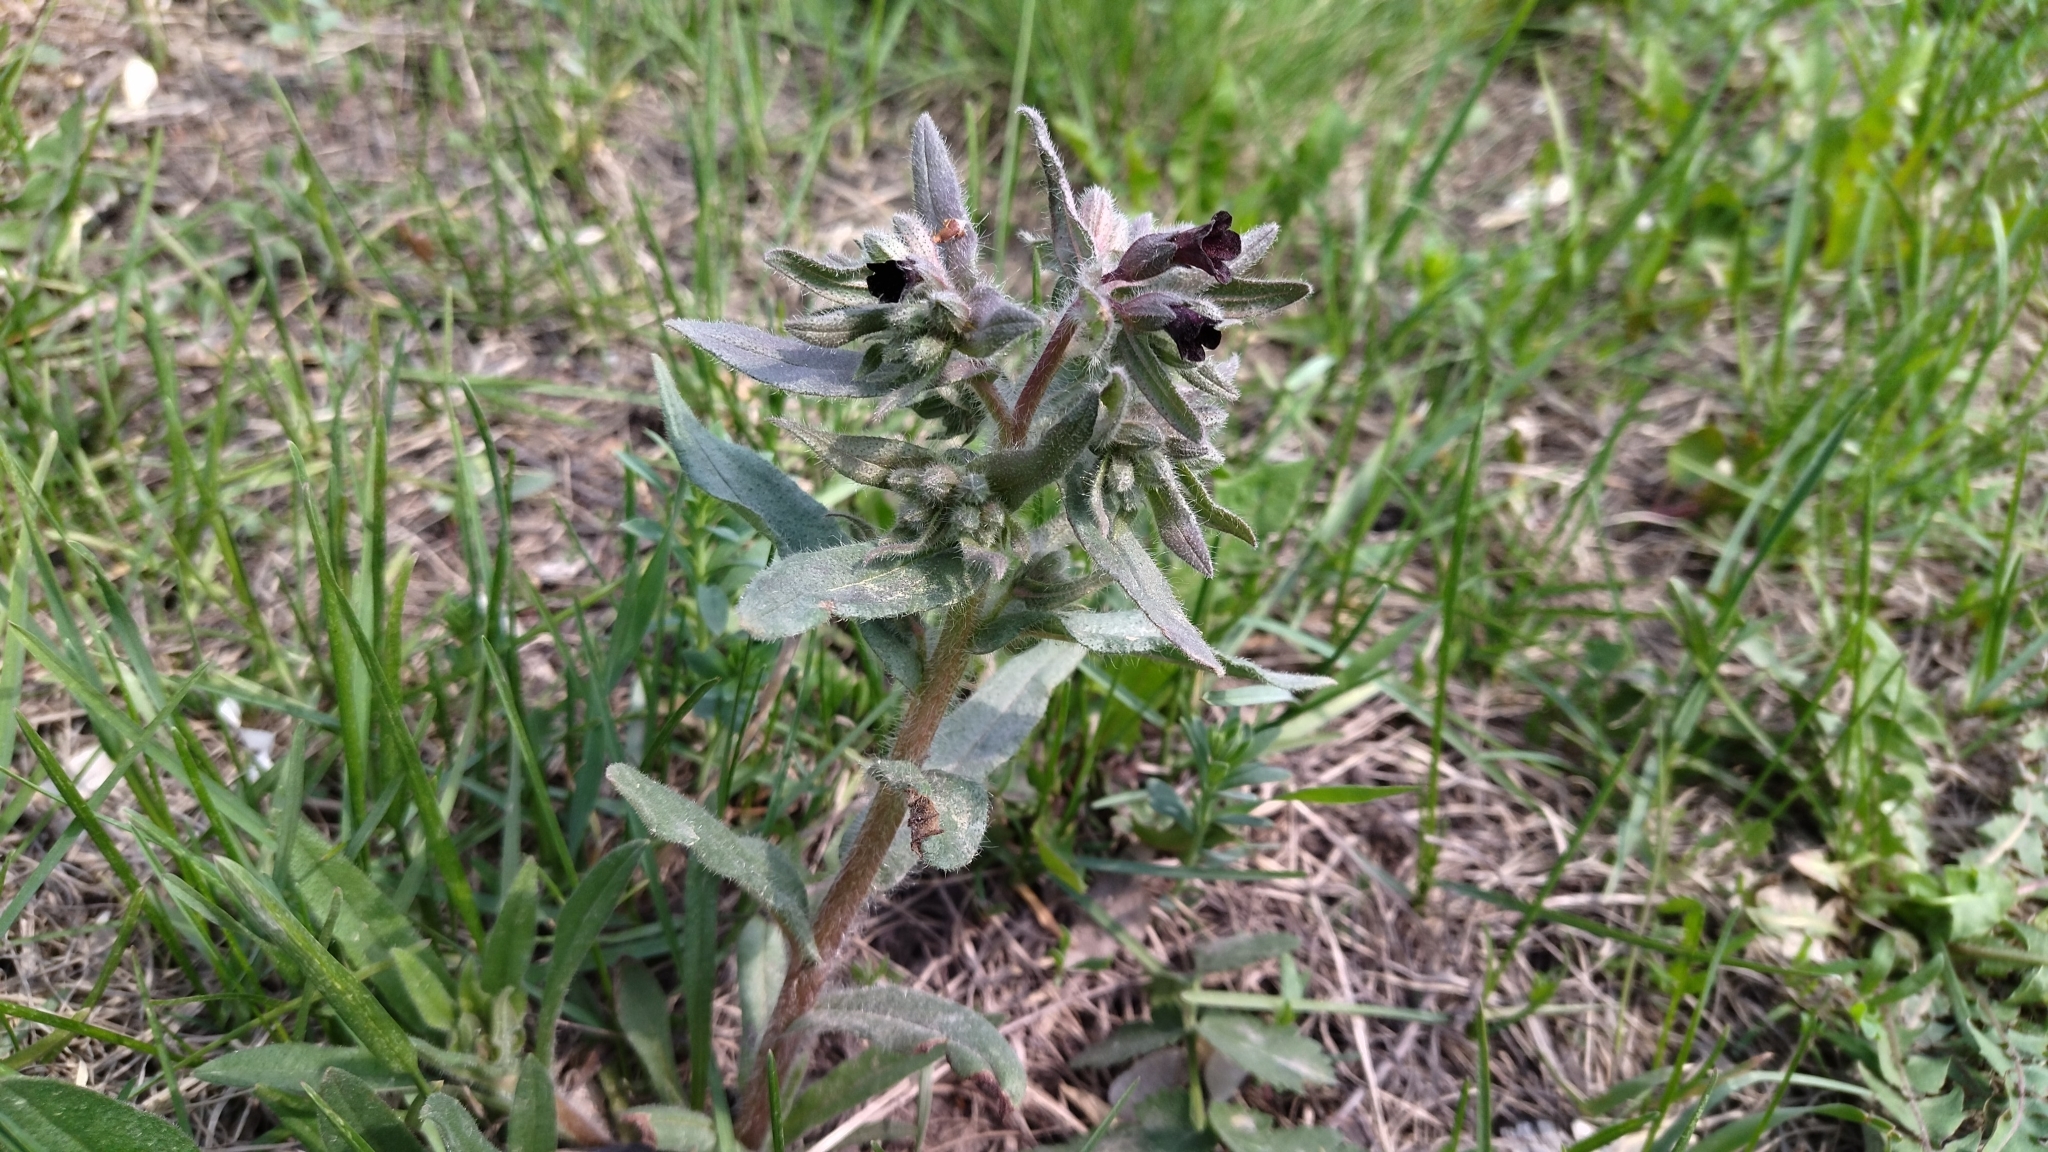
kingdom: Plantae
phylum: Tracheophyta
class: Magnoliopsida
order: Boraginales
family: Boraginaceae
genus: Nonea
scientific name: Nonea pulla
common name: Brown nonea
